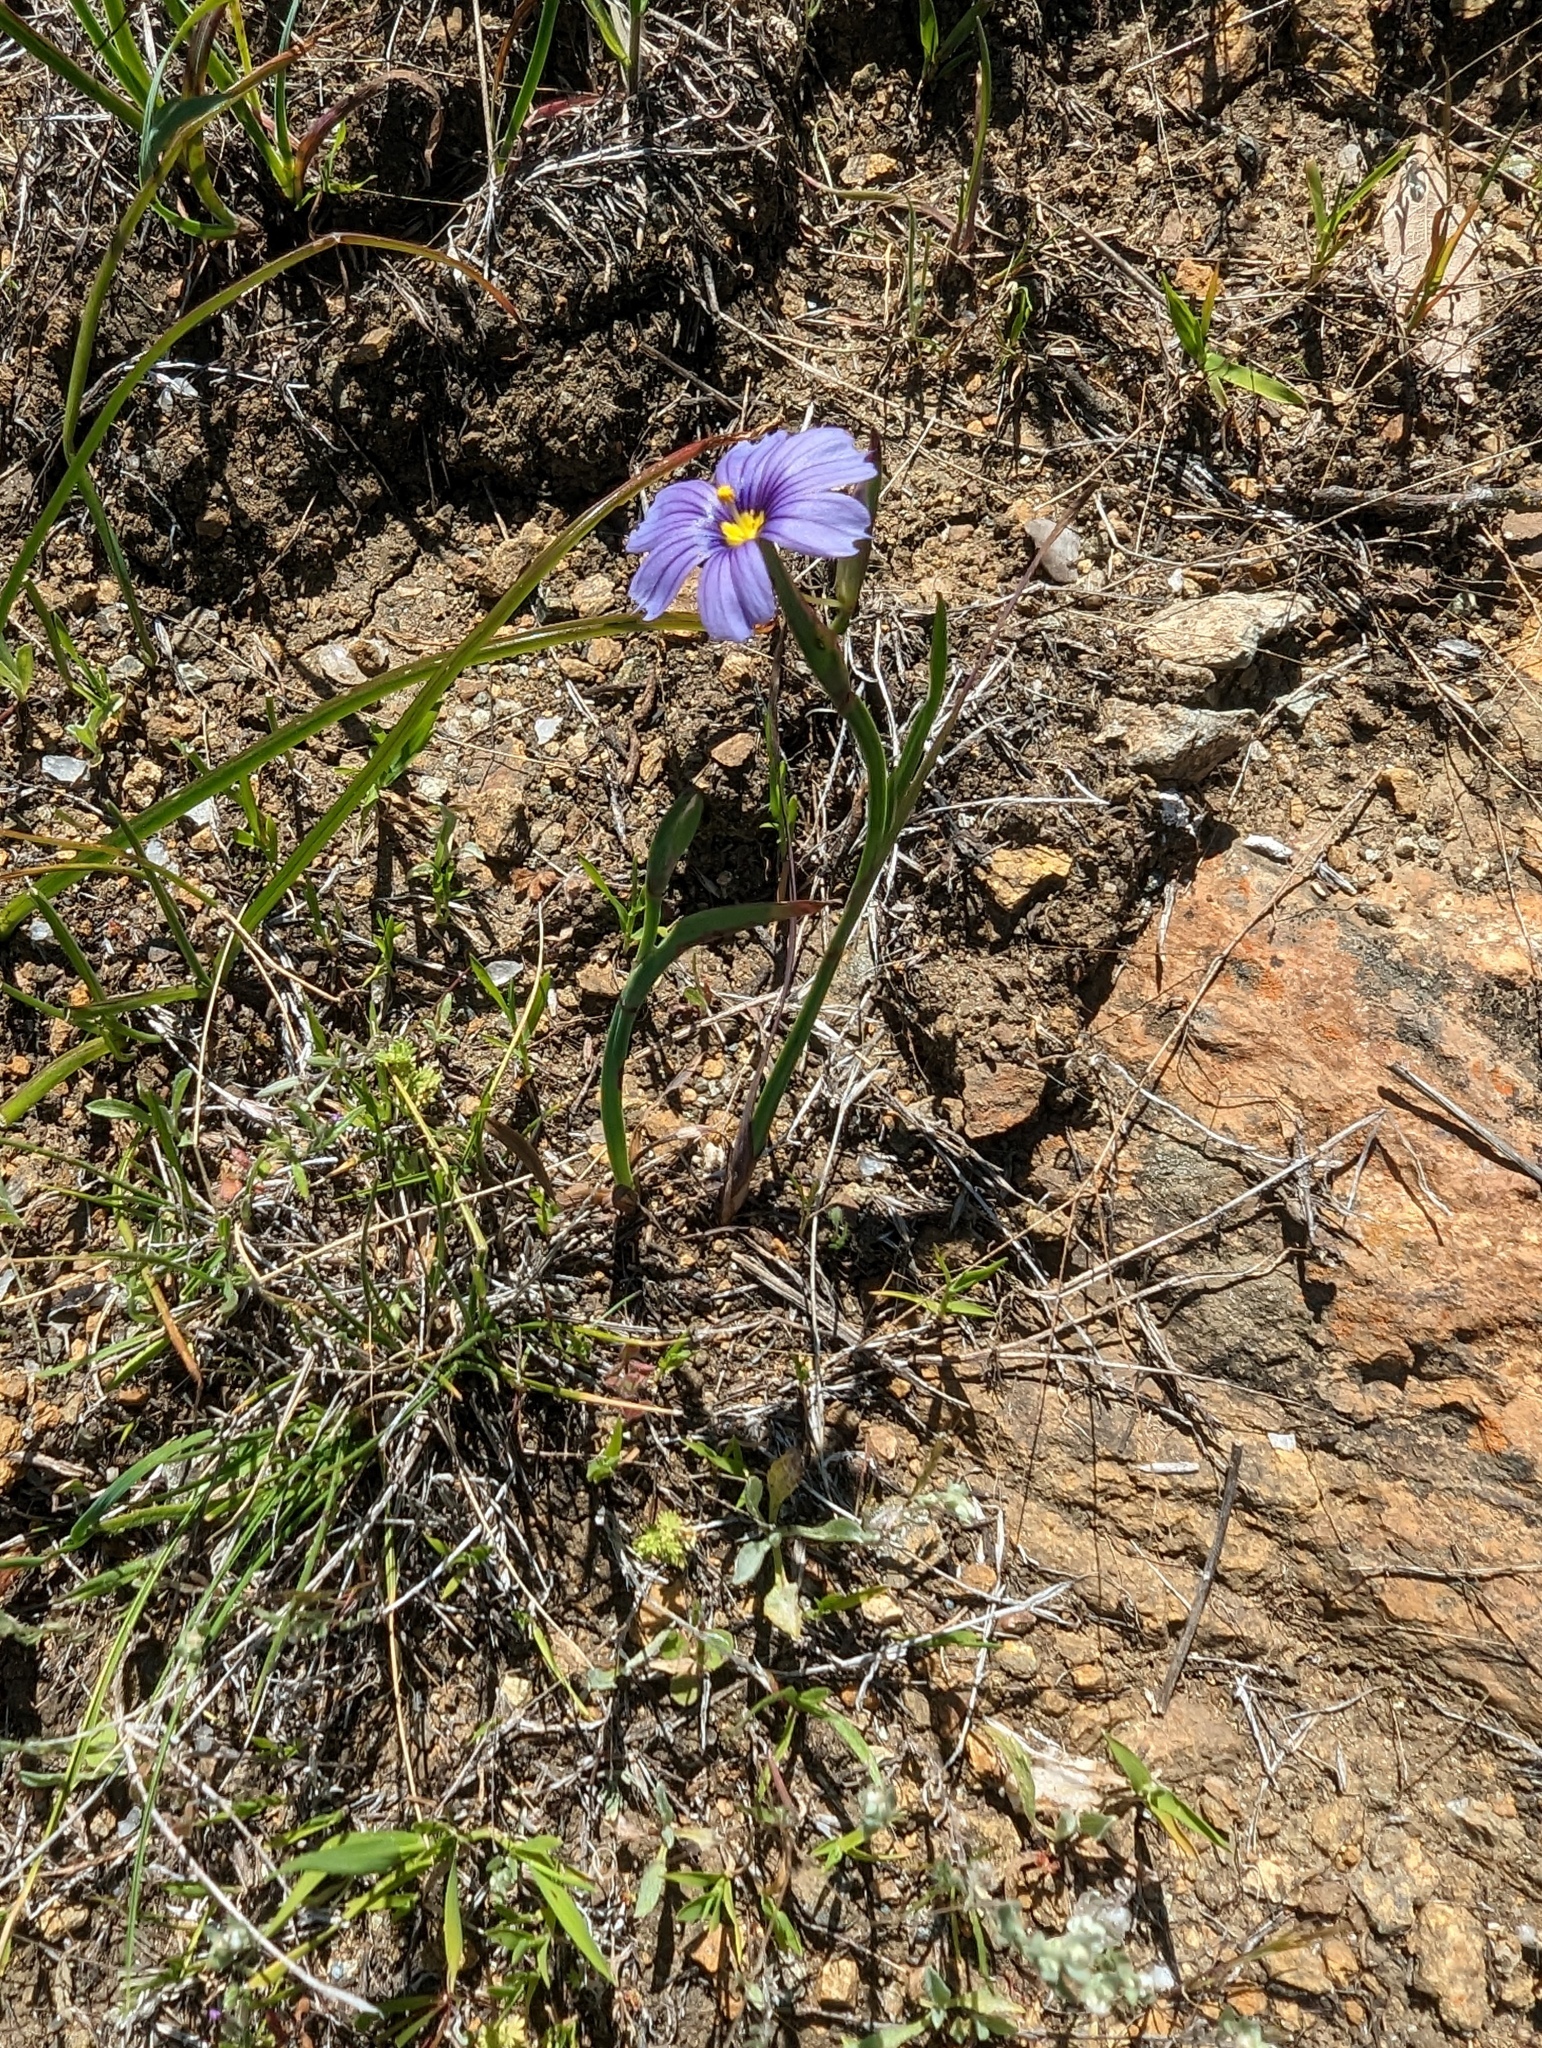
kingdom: Plantae
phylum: Tracheophyta
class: Liliopsida
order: Asparagales
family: Iridaceae
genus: Sisyrinchium
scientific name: Sisyrinchium bellum
